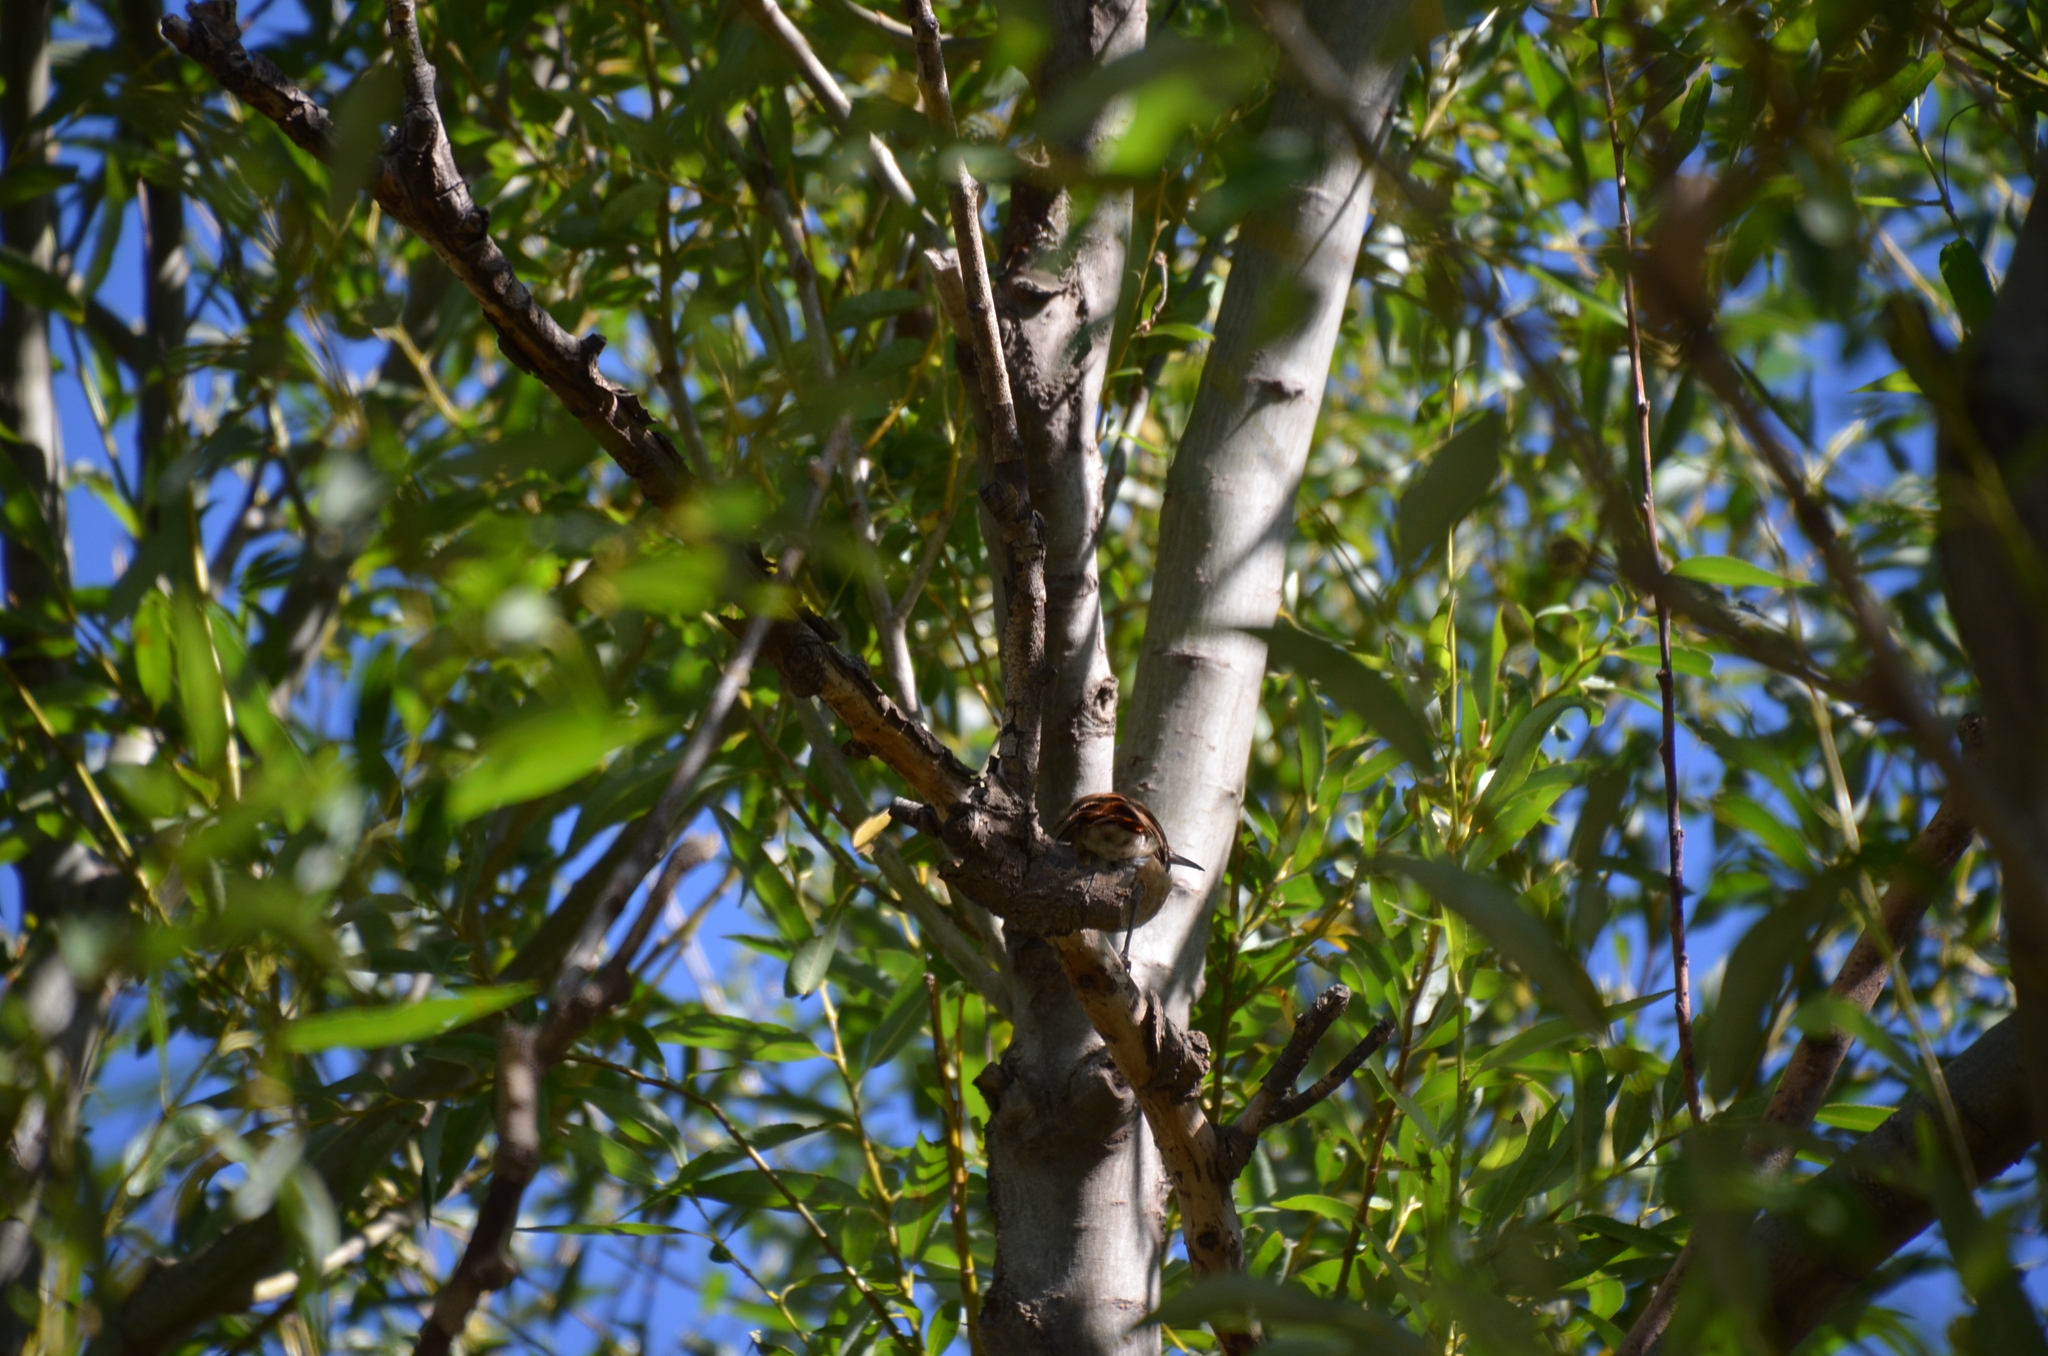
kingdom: Animalia
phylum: Chordata
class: Aves
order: Passeriformes
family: Furnariidae
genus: Furnarius
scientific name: Furnarius rufus
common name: Rufous hornero
